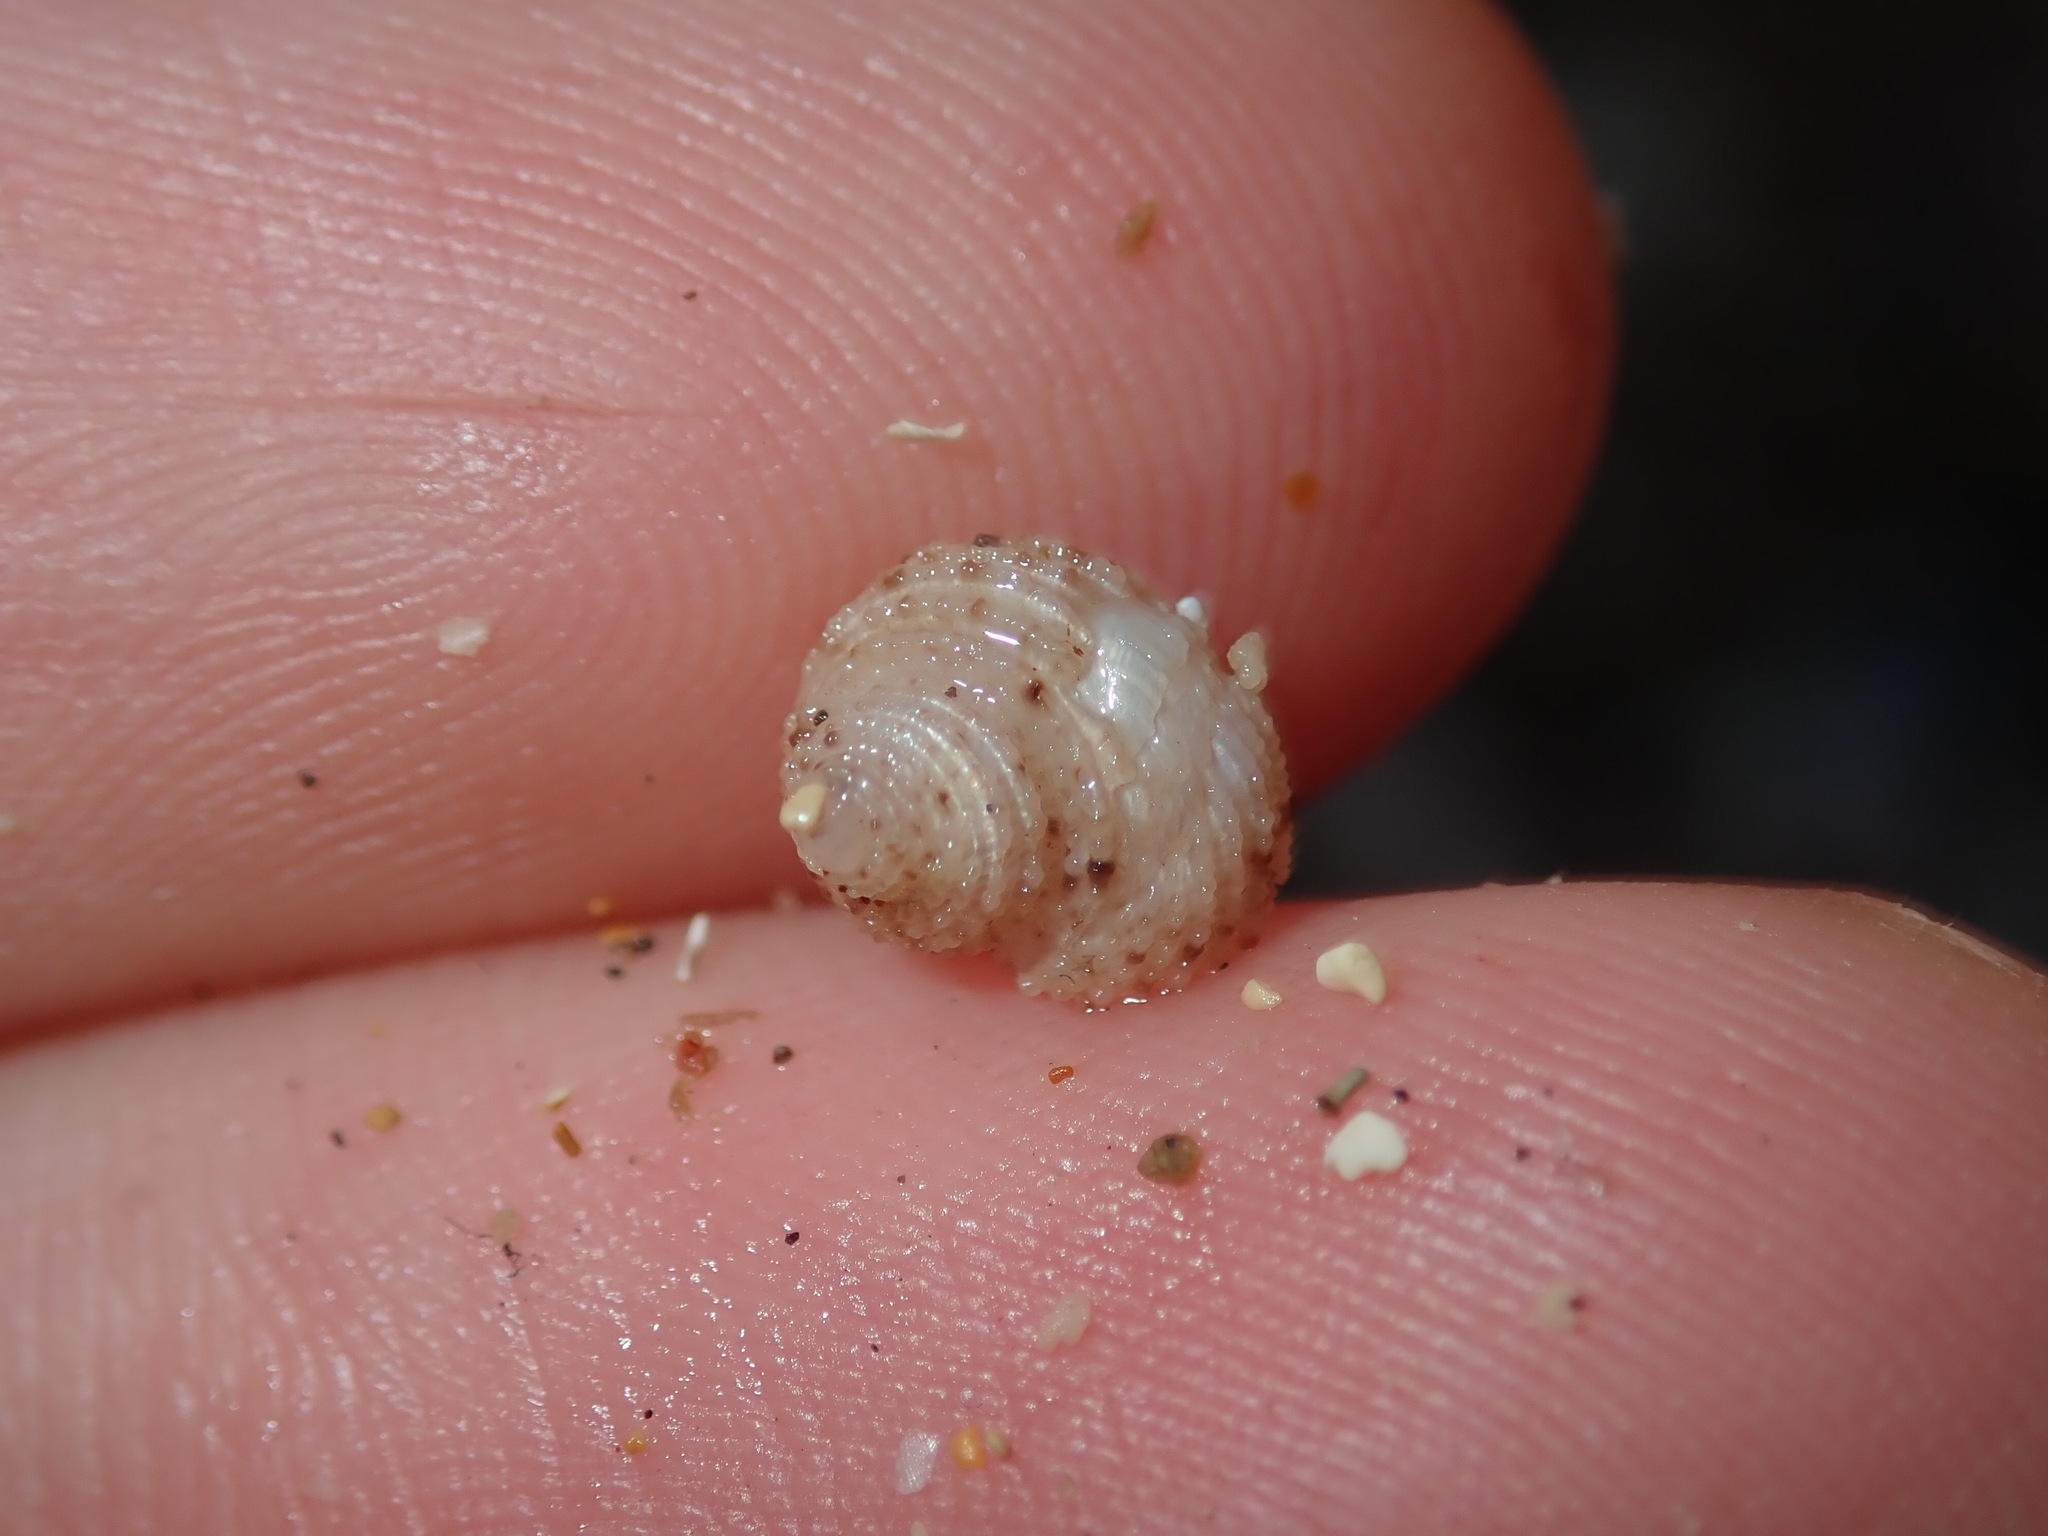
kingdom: Animalia
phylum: Mollusca
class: Gastropoda
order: Seguenziida
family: Chilodontaidae
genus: Herpetopoma
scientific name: Herpetopoma aspersum
